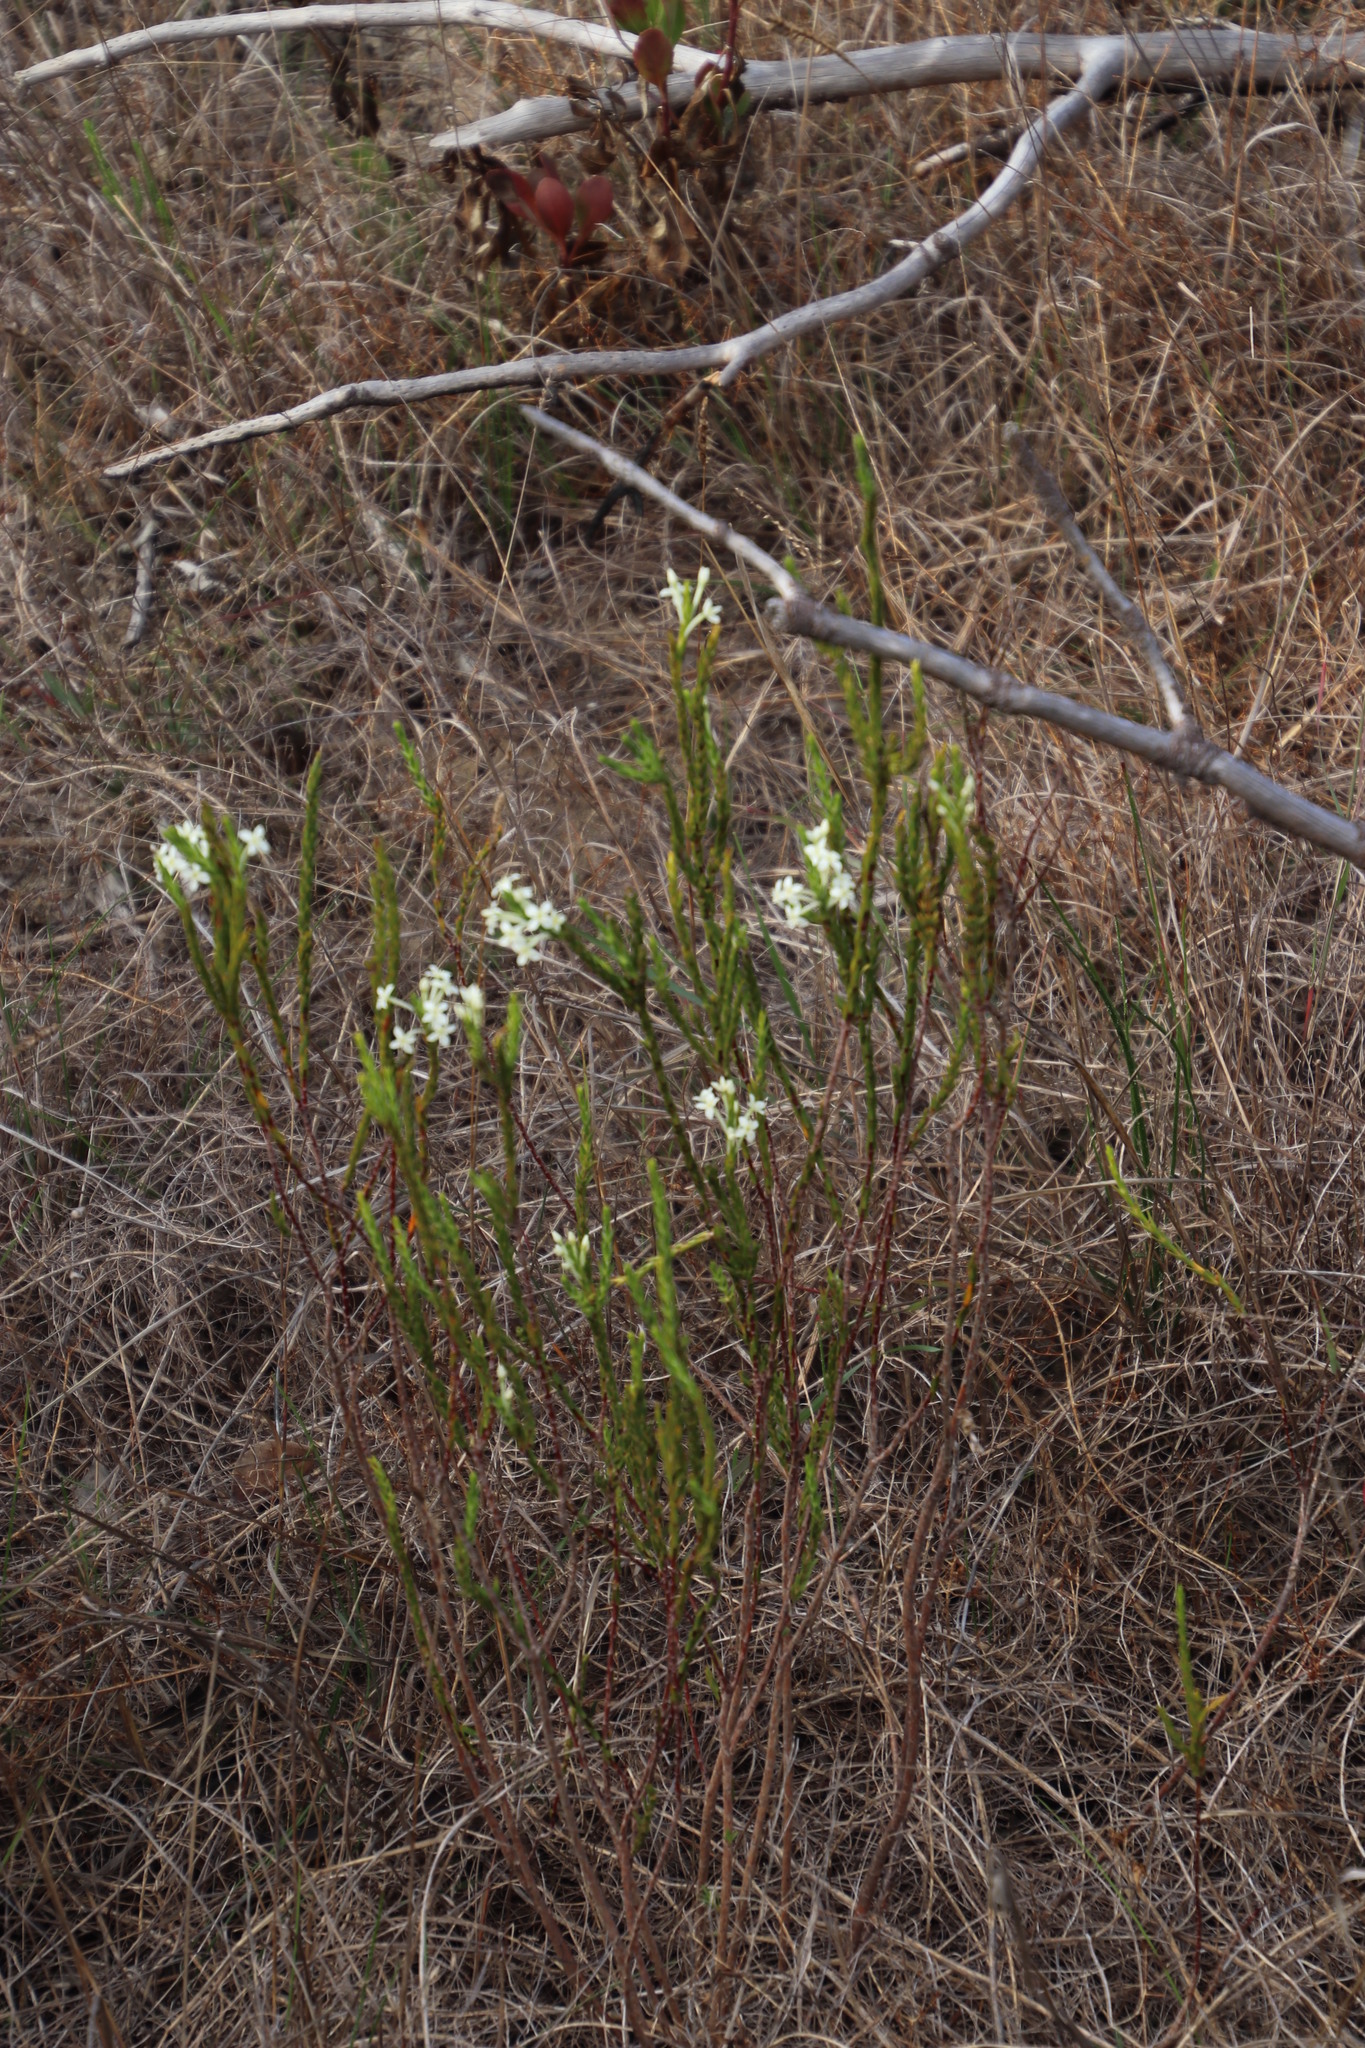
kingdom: Plantae
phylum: Tracheophyta
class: Magnoliopsida
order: Malvales
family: Thymelaeaceae
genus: Struthiola
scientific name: Struthiola ciliata
